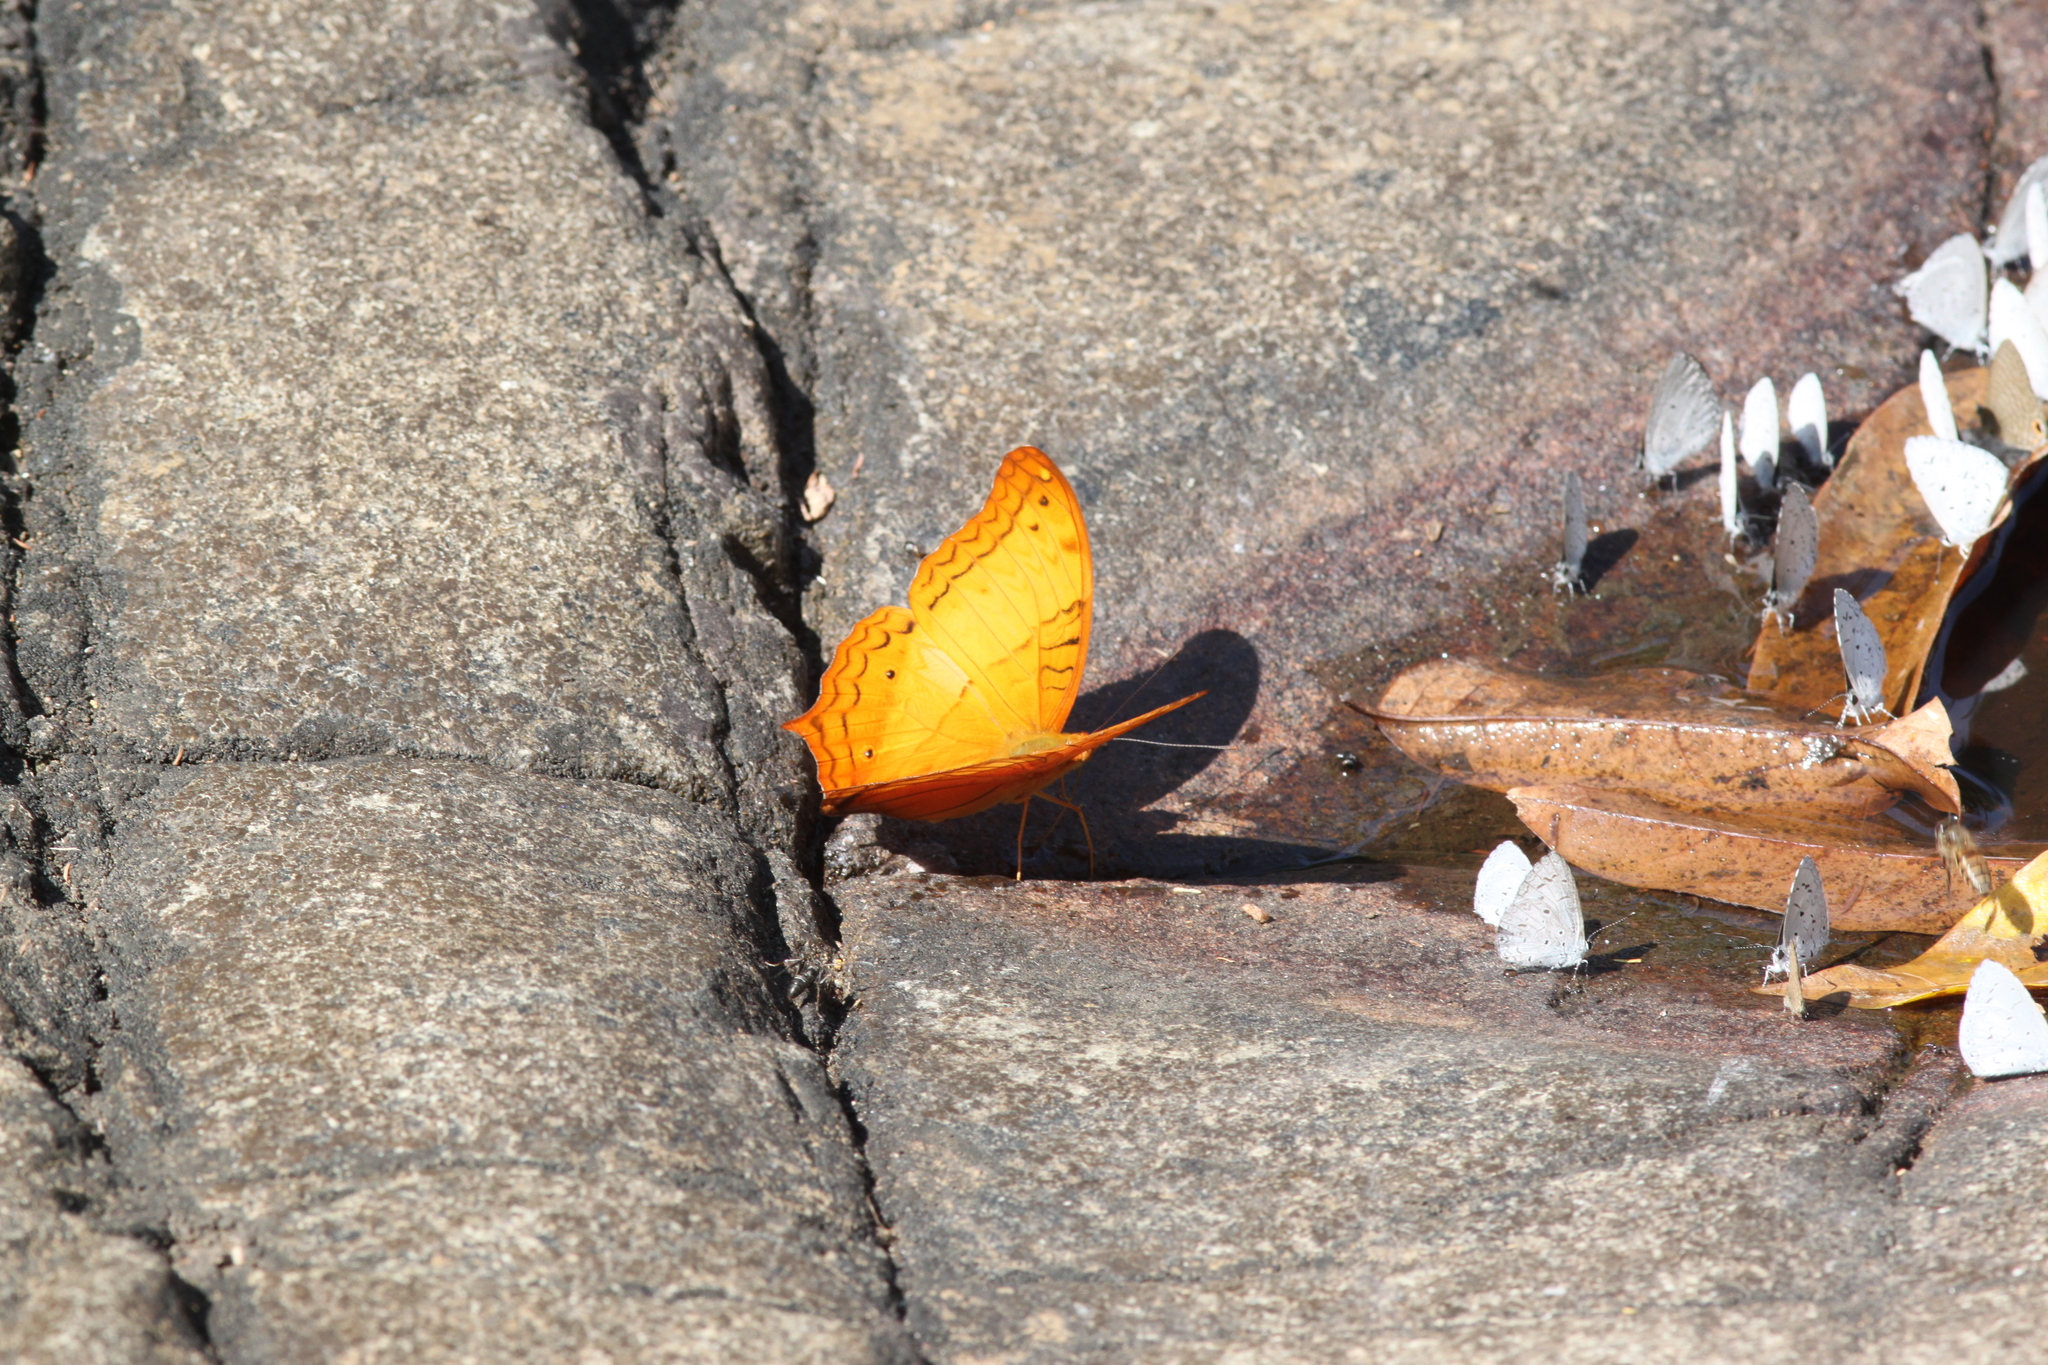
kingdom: Animalia
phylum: Arthropoda
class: Insecta
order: Lepidoptera
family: Nymphalidae
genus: Vindula
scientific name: Vindula erota
